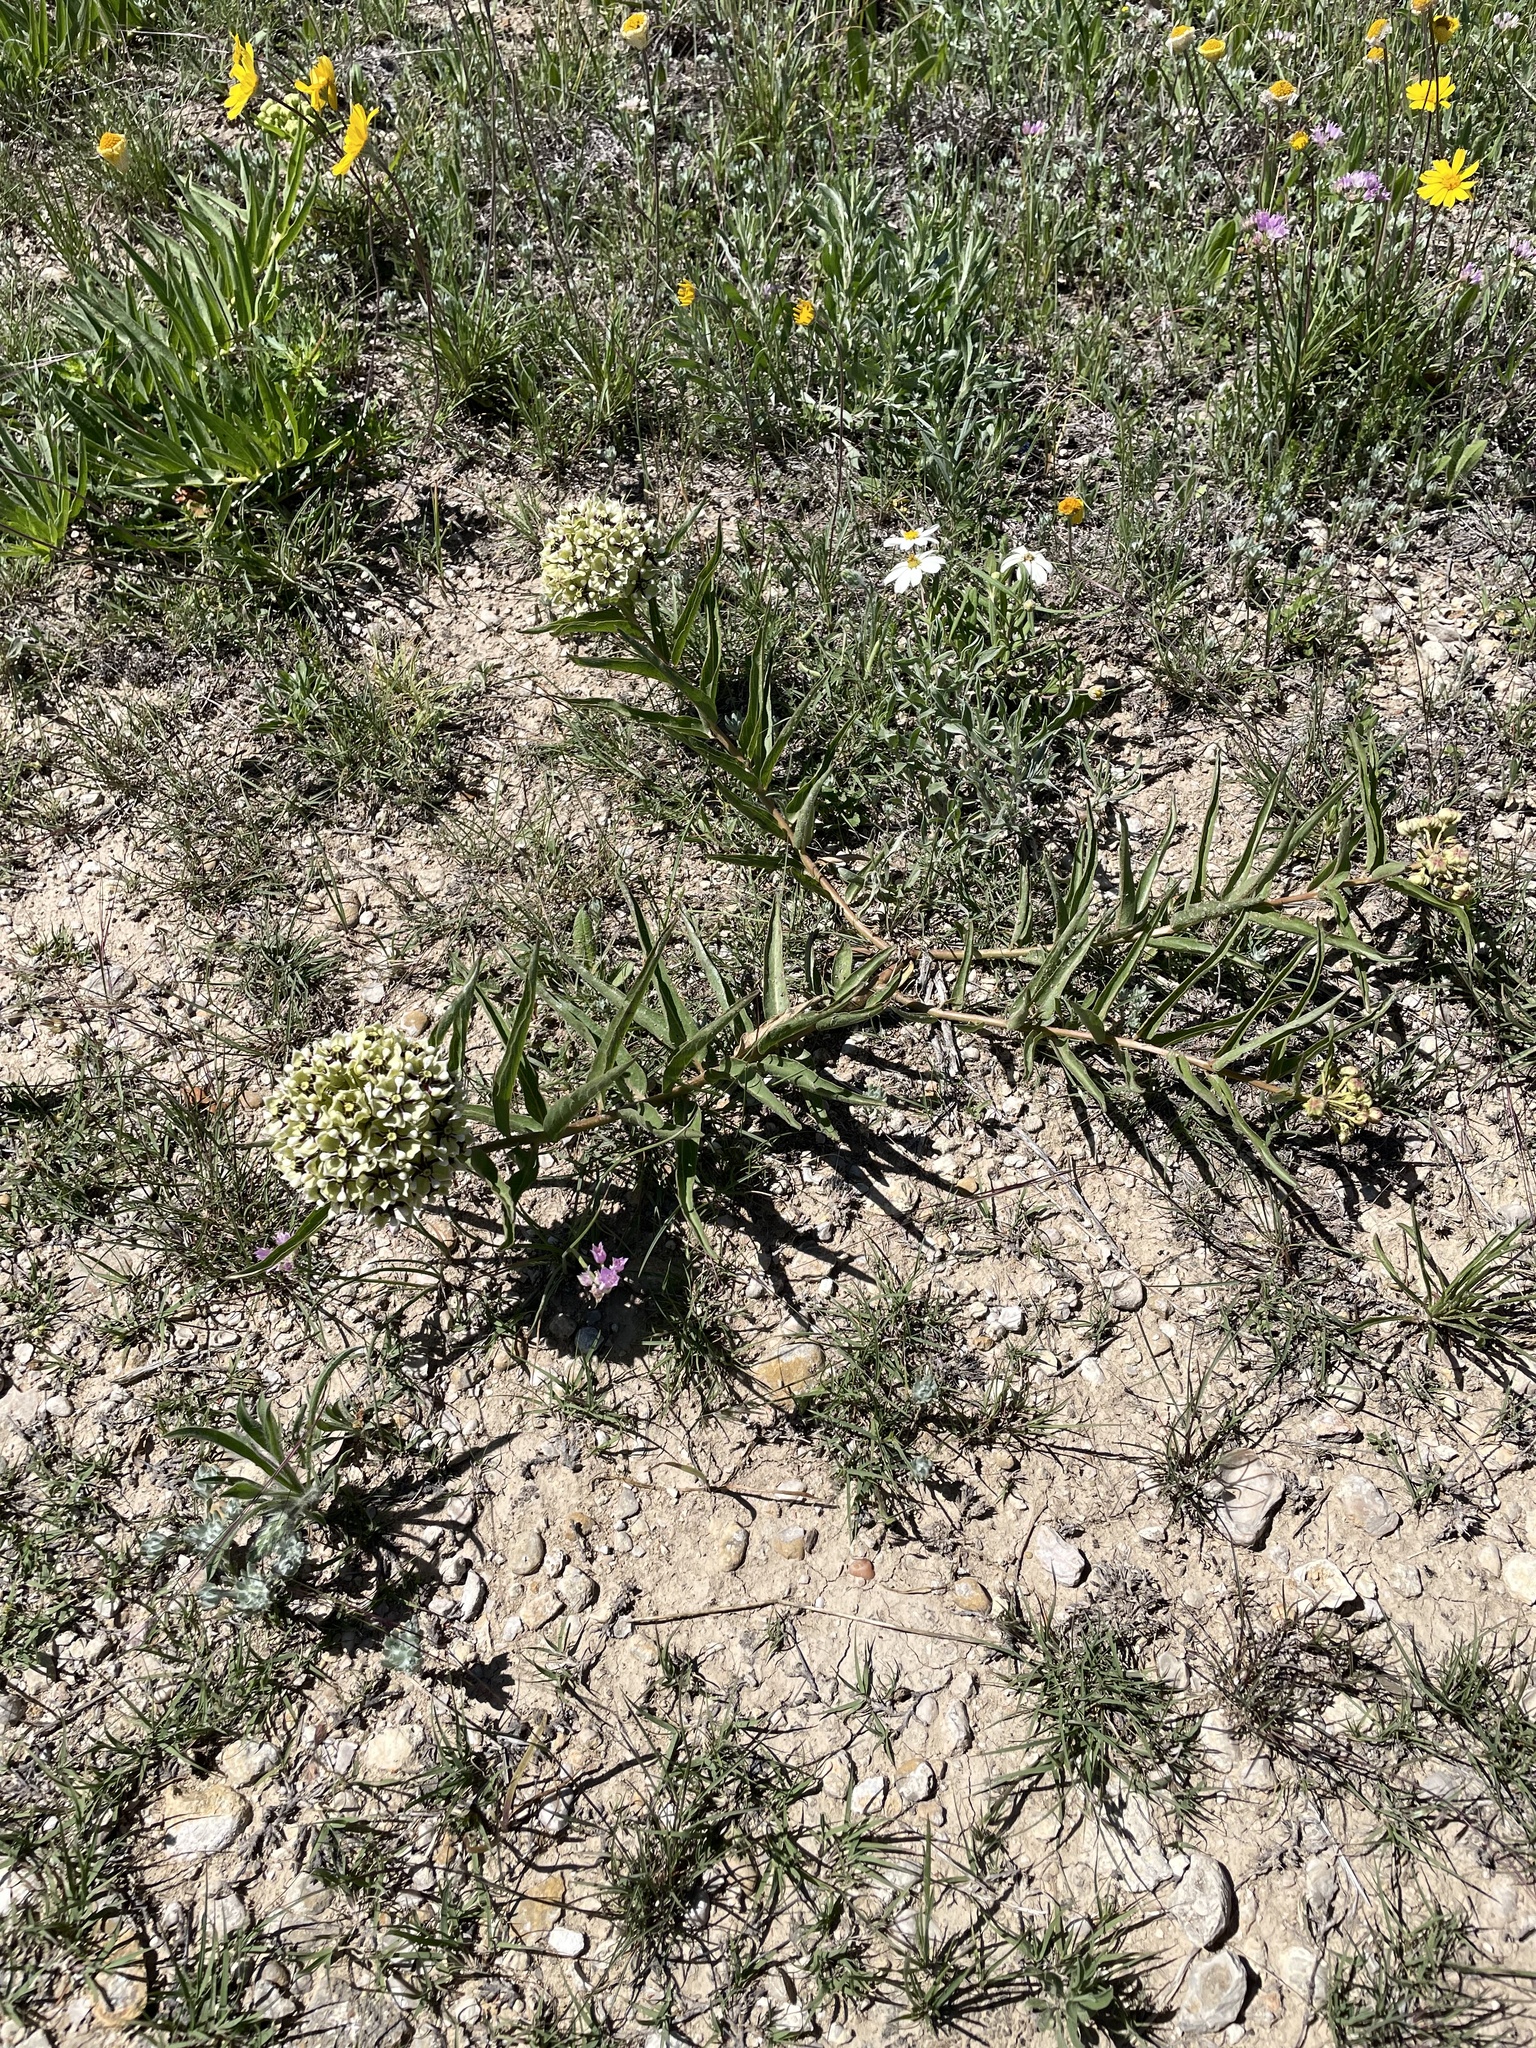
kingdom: Plantae
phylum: Tracheophyta
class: Magnoliopsida
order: Gentianales
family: Apocynaceae
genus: Asclepias
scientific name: Asclepias asperula
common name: Antelope horns
